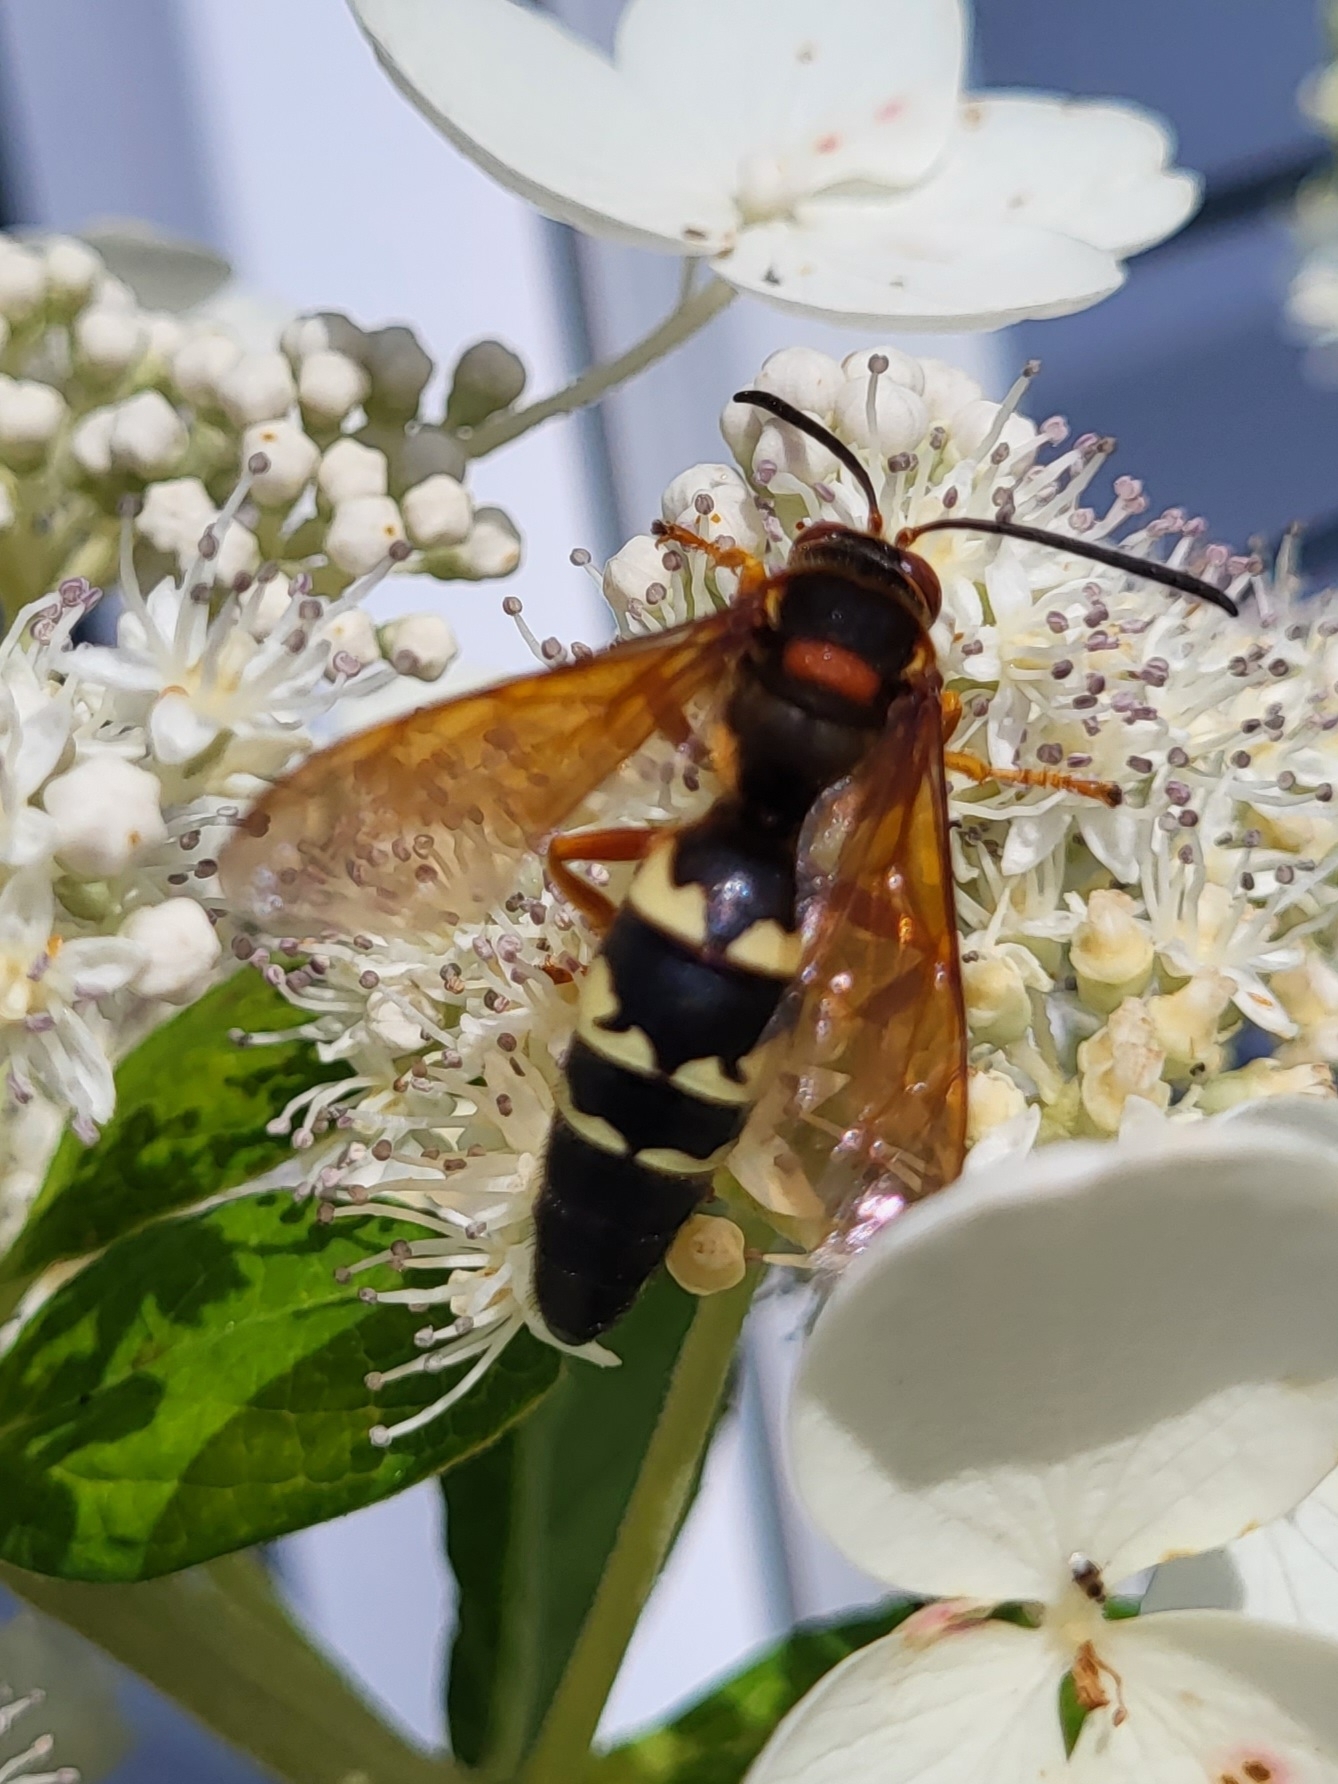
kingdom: Animalia
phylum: Arthropoda
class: Insecta
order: Hymenoptera
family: Crabronidae
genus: Sphecius
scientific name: Sphecius speciosus
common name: Cicada killer
